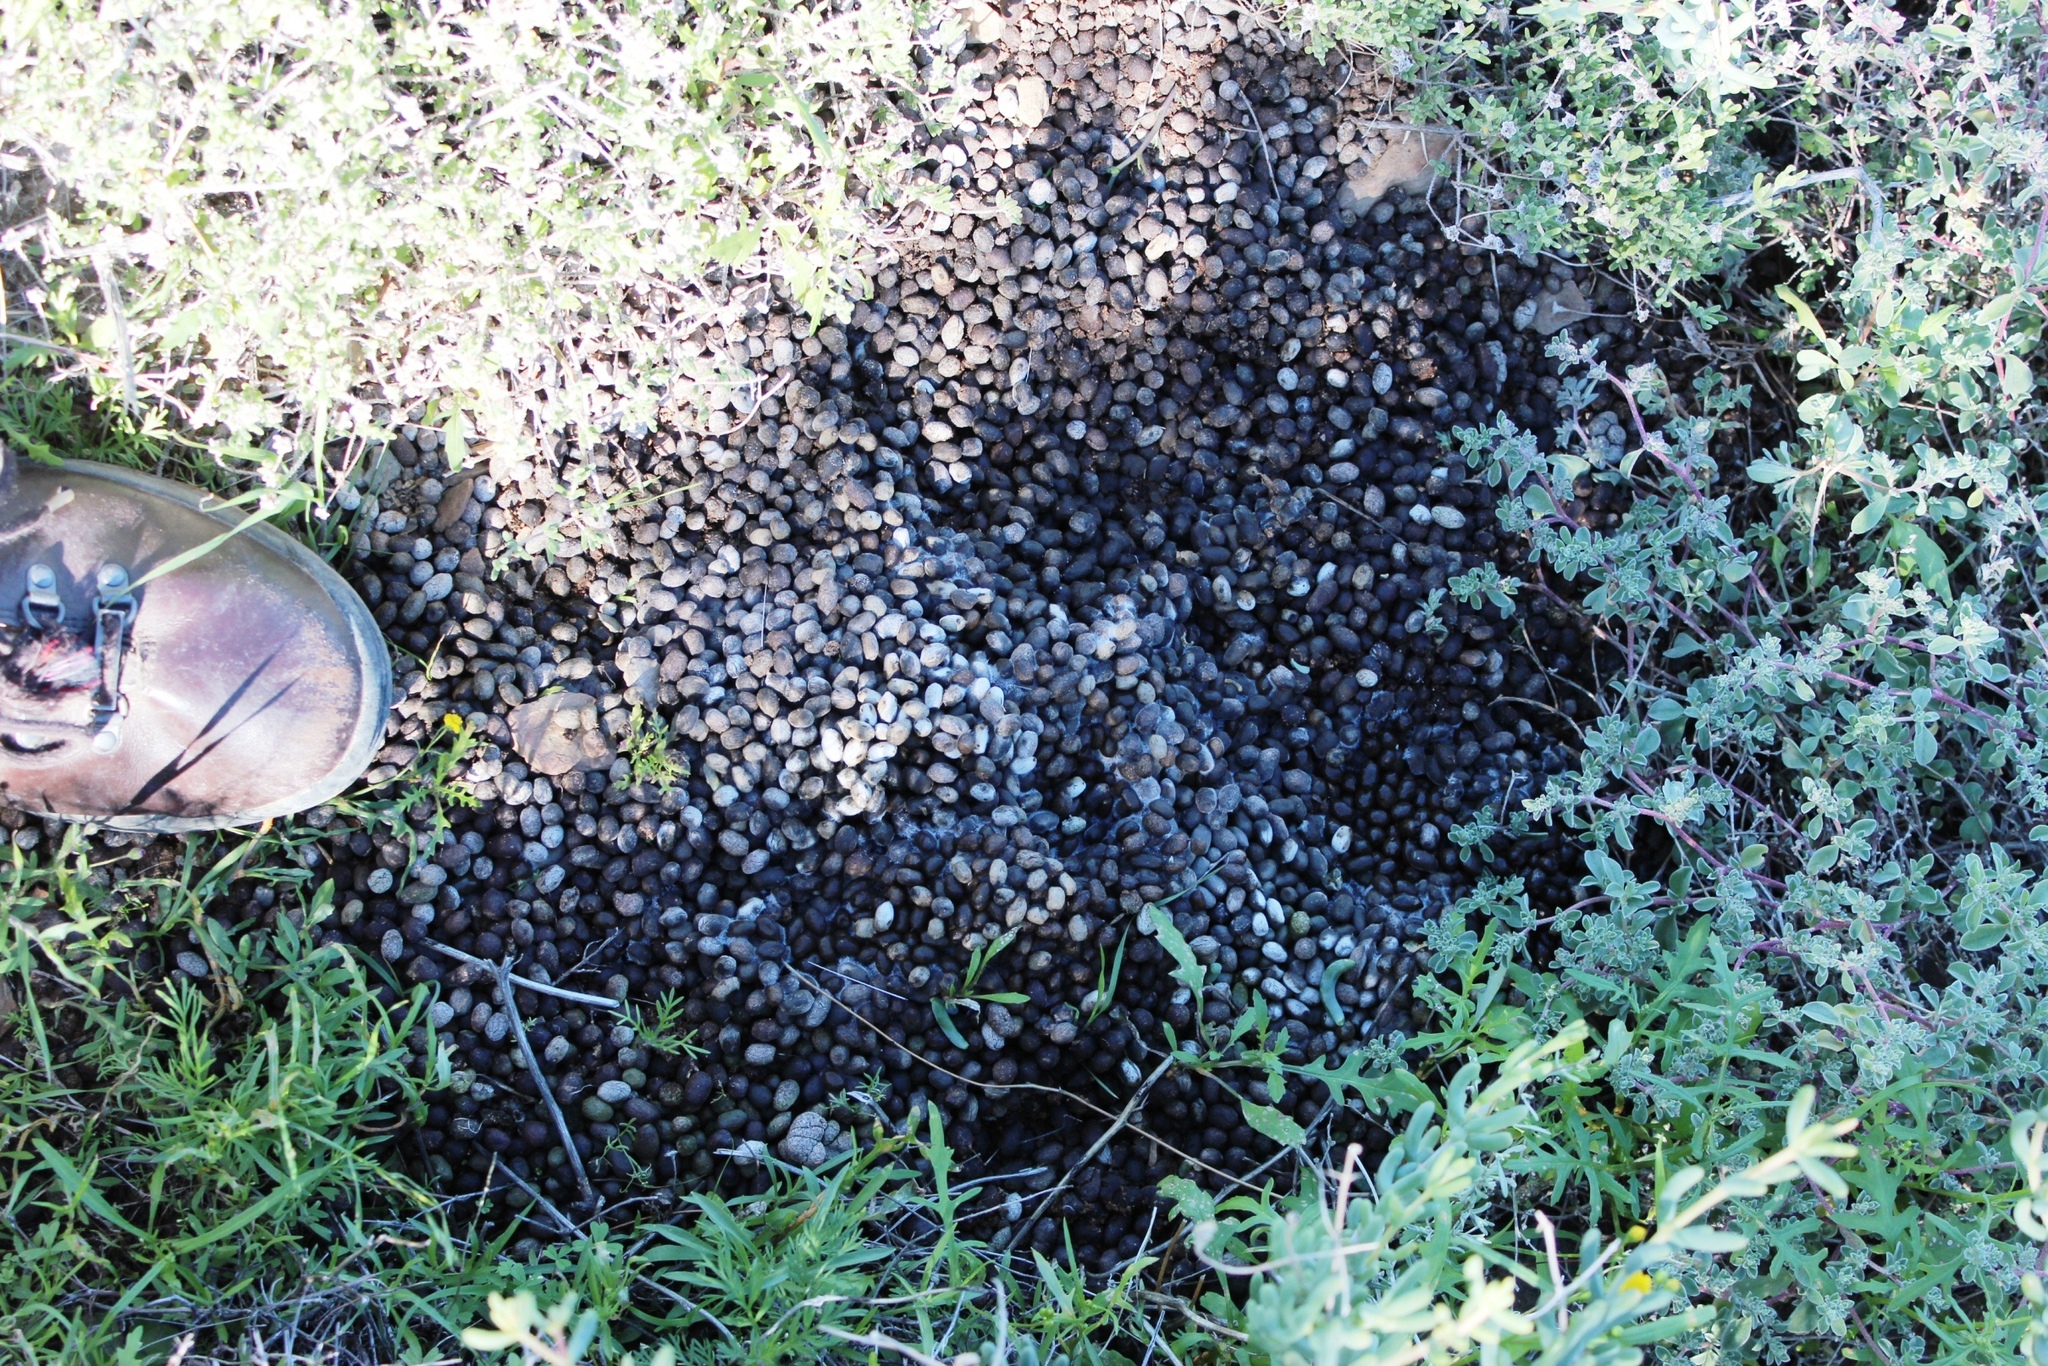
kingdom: Animalia
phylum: Chordata
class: Mammalia
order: Artiodactyla
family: Bovidae
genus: Oreotragus
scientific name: Oreotragus oreotragus
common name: Klipspringer
